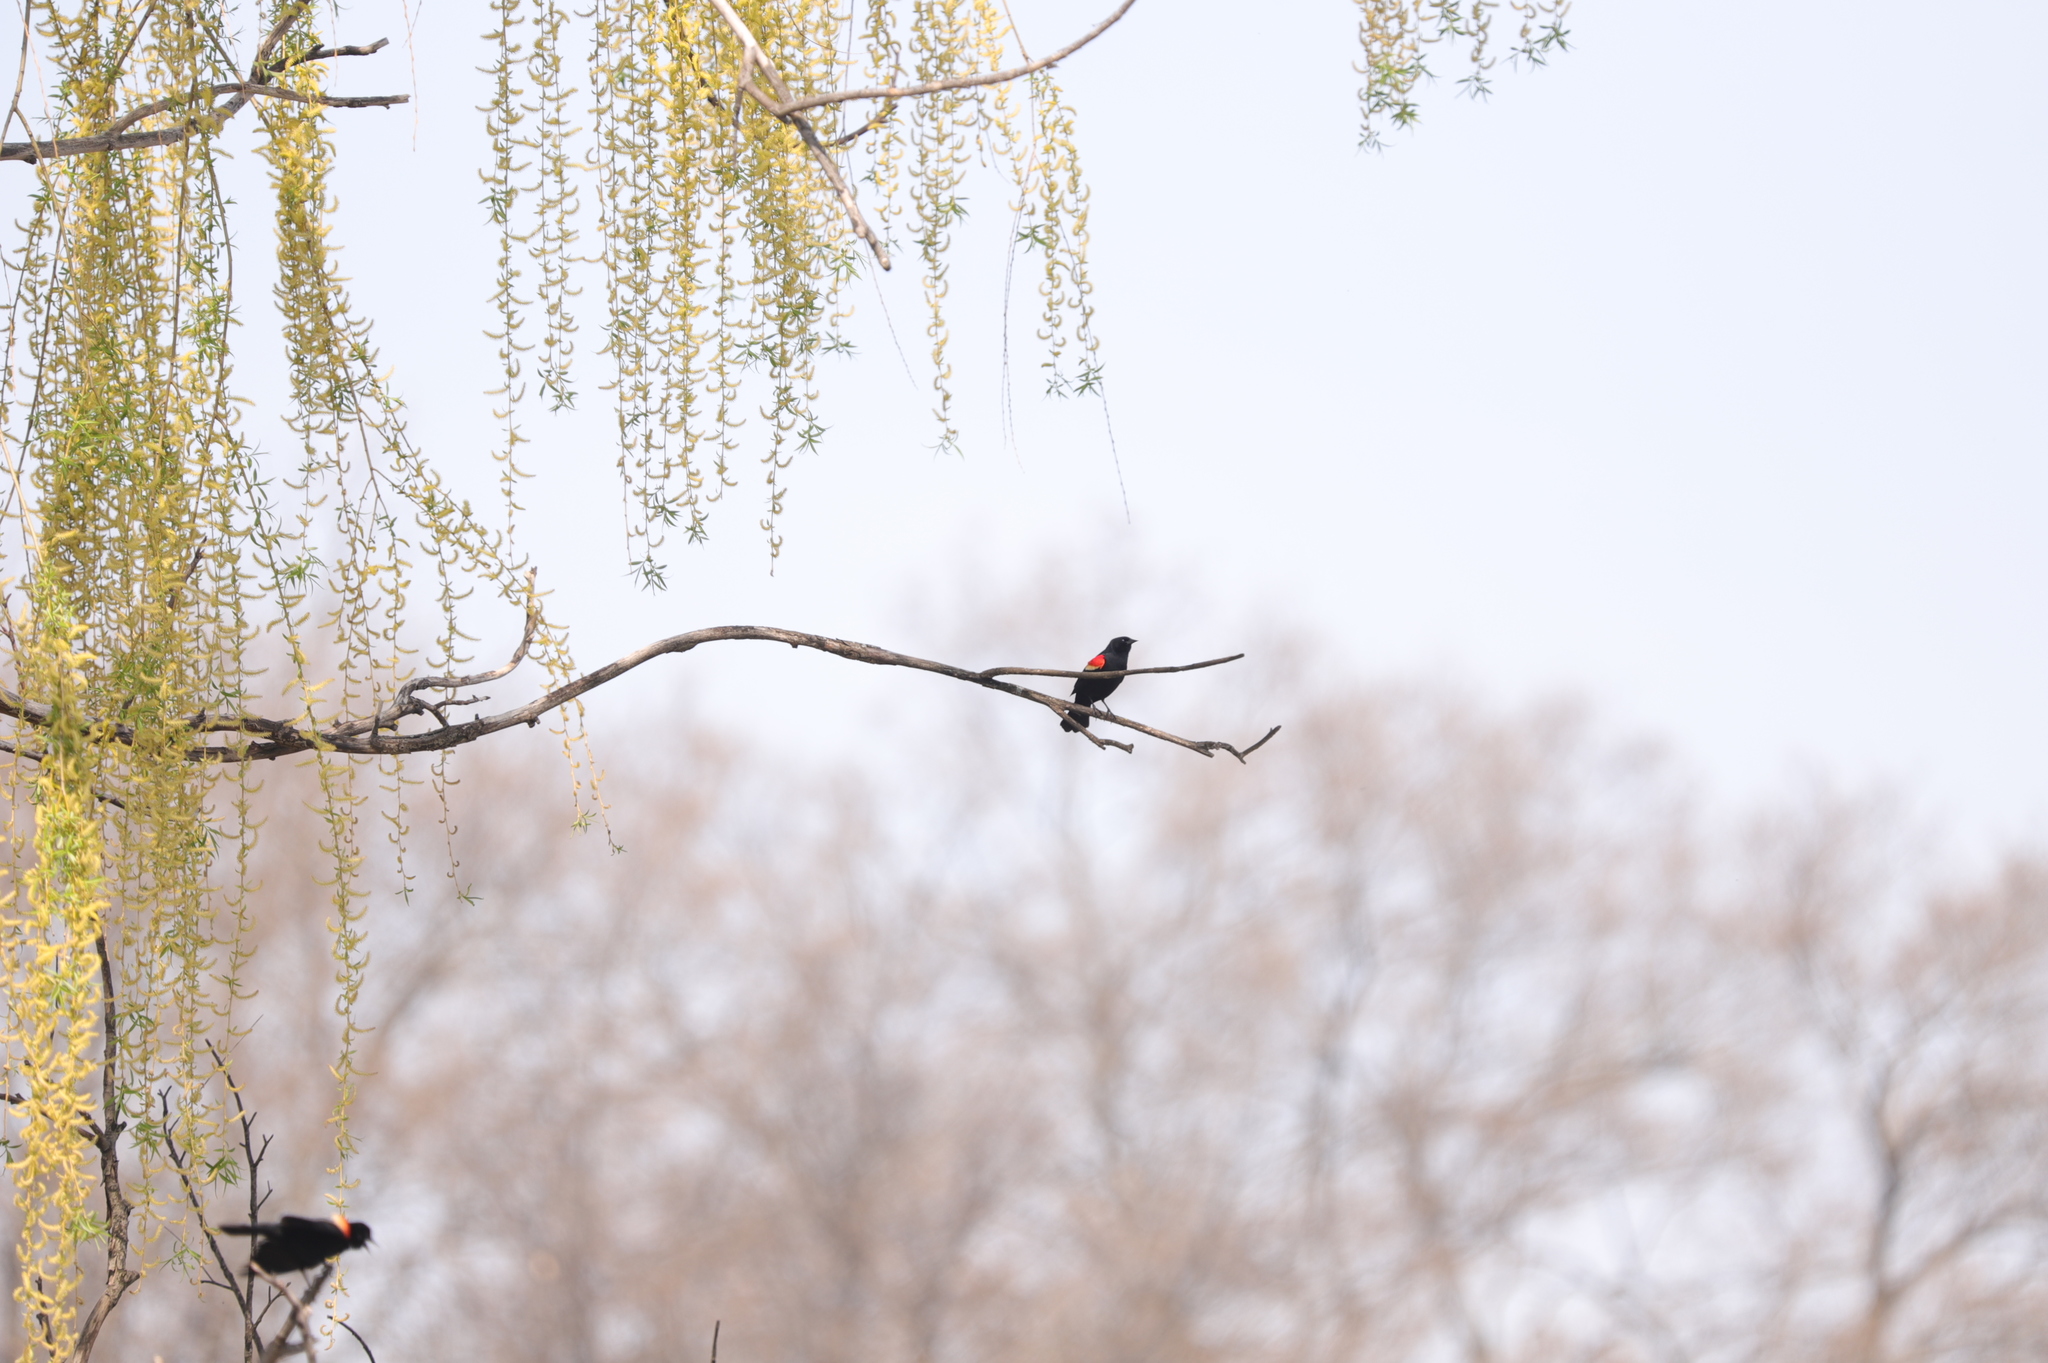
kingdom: Animalia
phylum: Chordata
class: Aves
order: Passeriformes
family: Icteridae
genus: Agelaius
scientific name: Agelaius phoeniceus
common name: Red-winged blackbird
